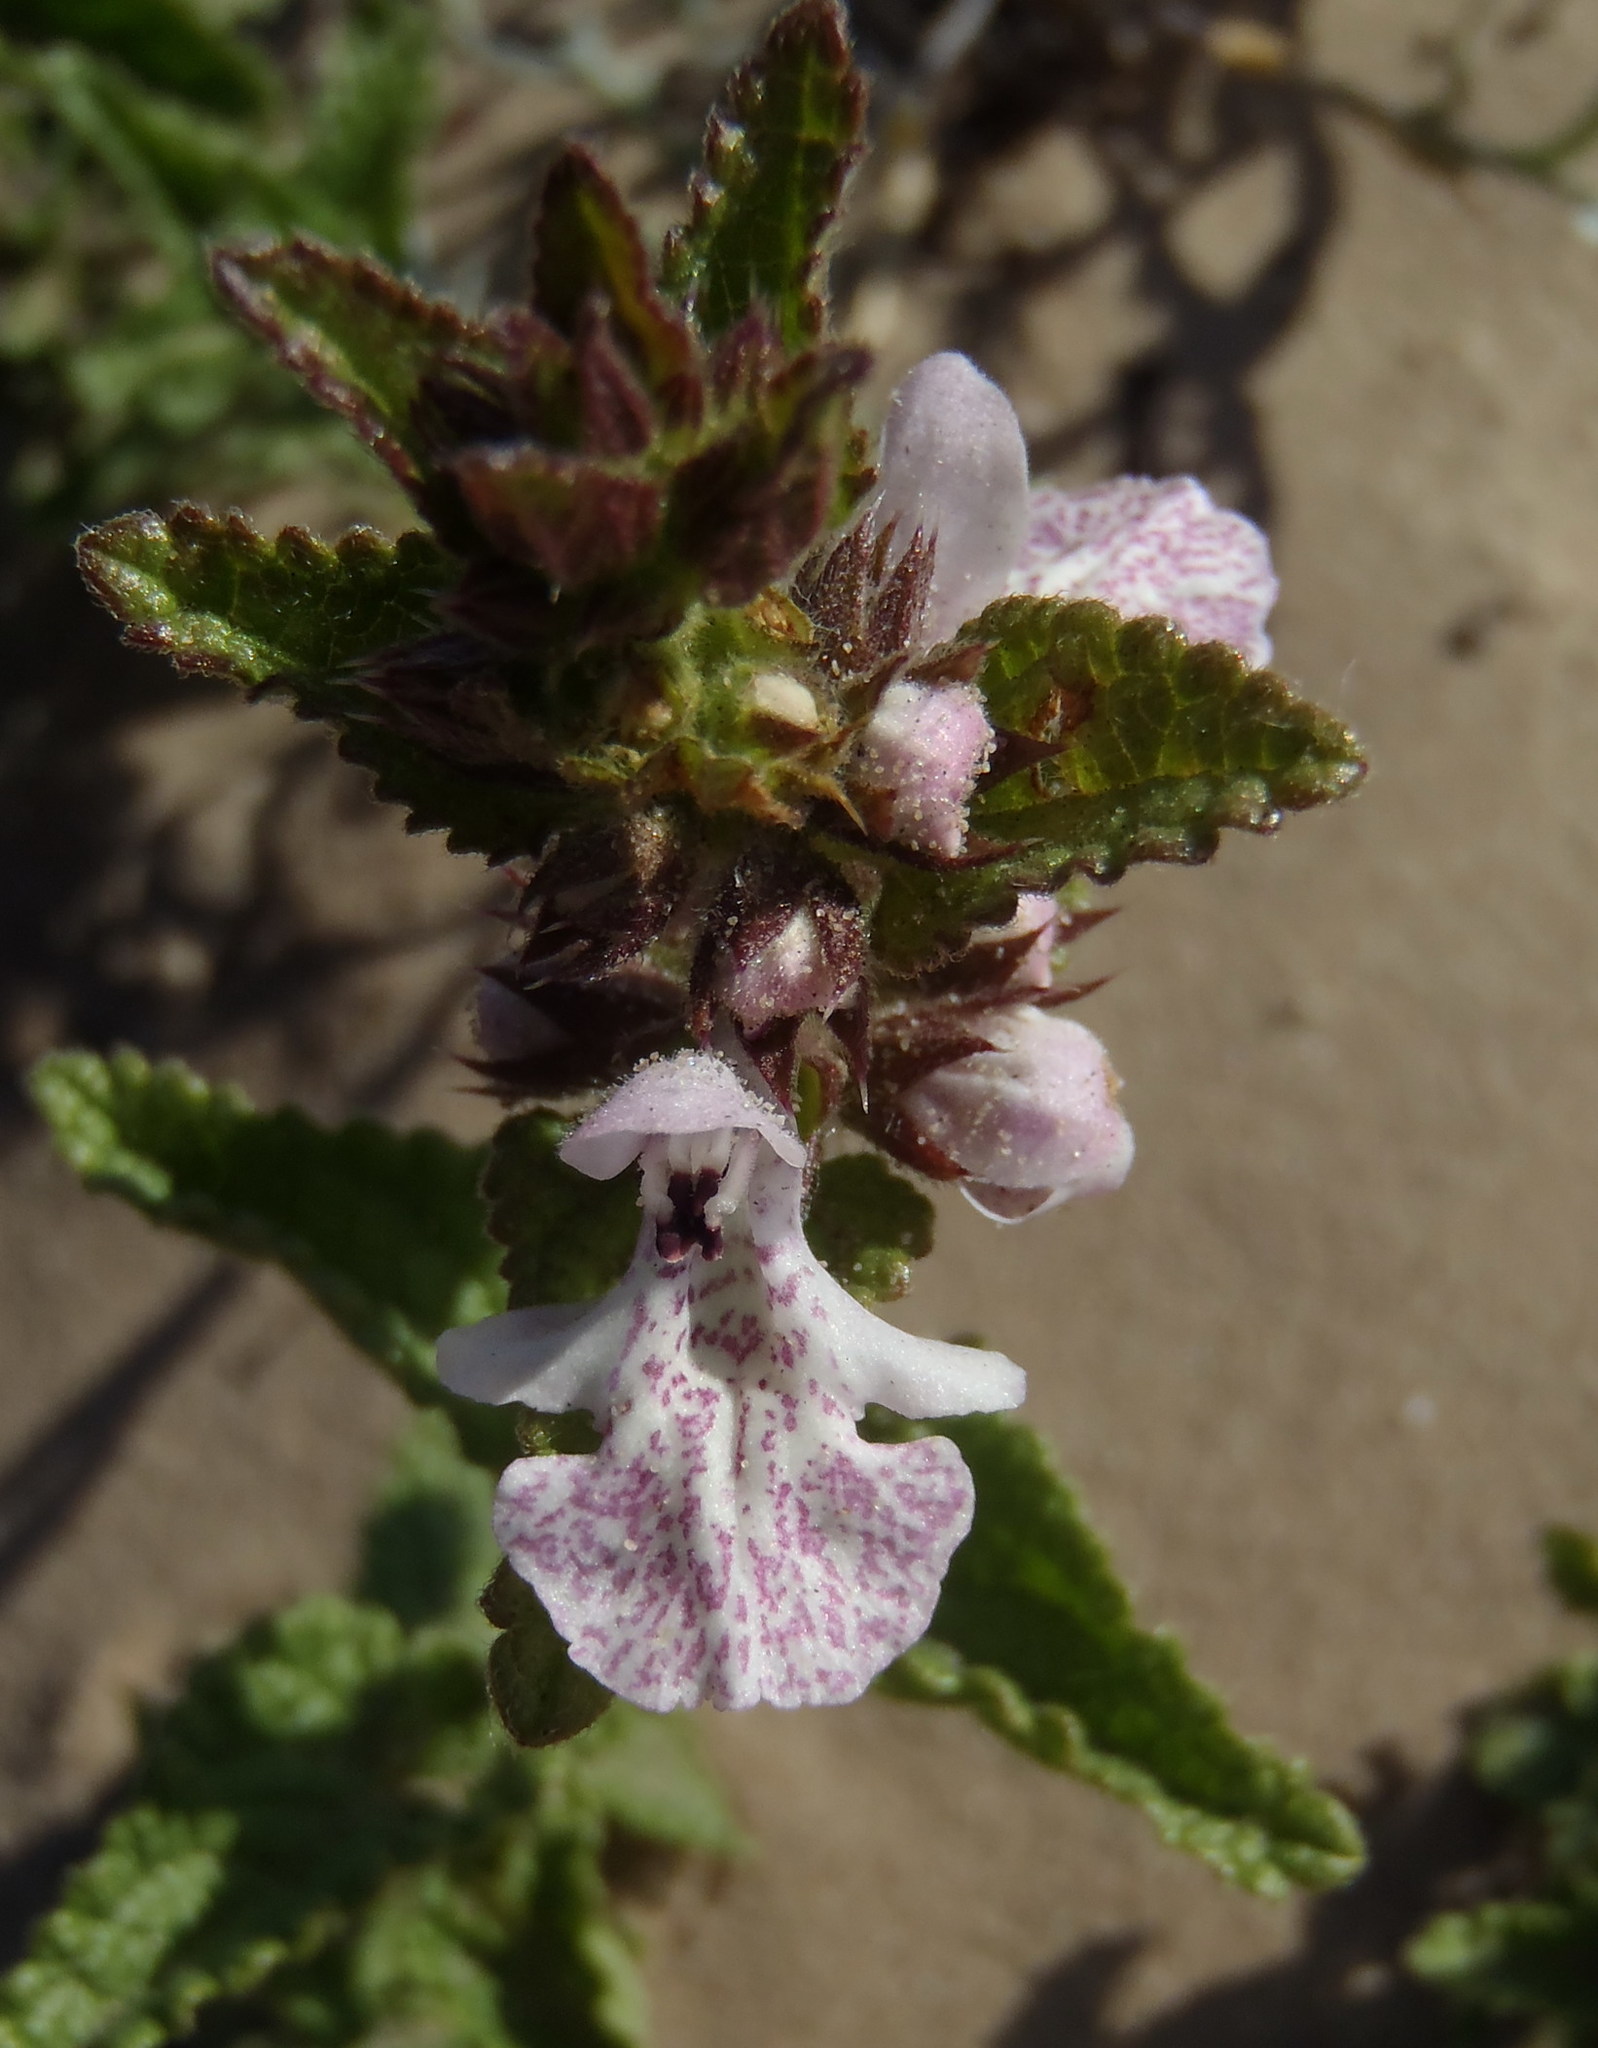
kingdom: Plantae
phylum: Tracheophyta
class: Magnoliopsida
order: Lamiales
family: Lamiaceae
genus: Stachys
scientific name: Stachys bolusii
